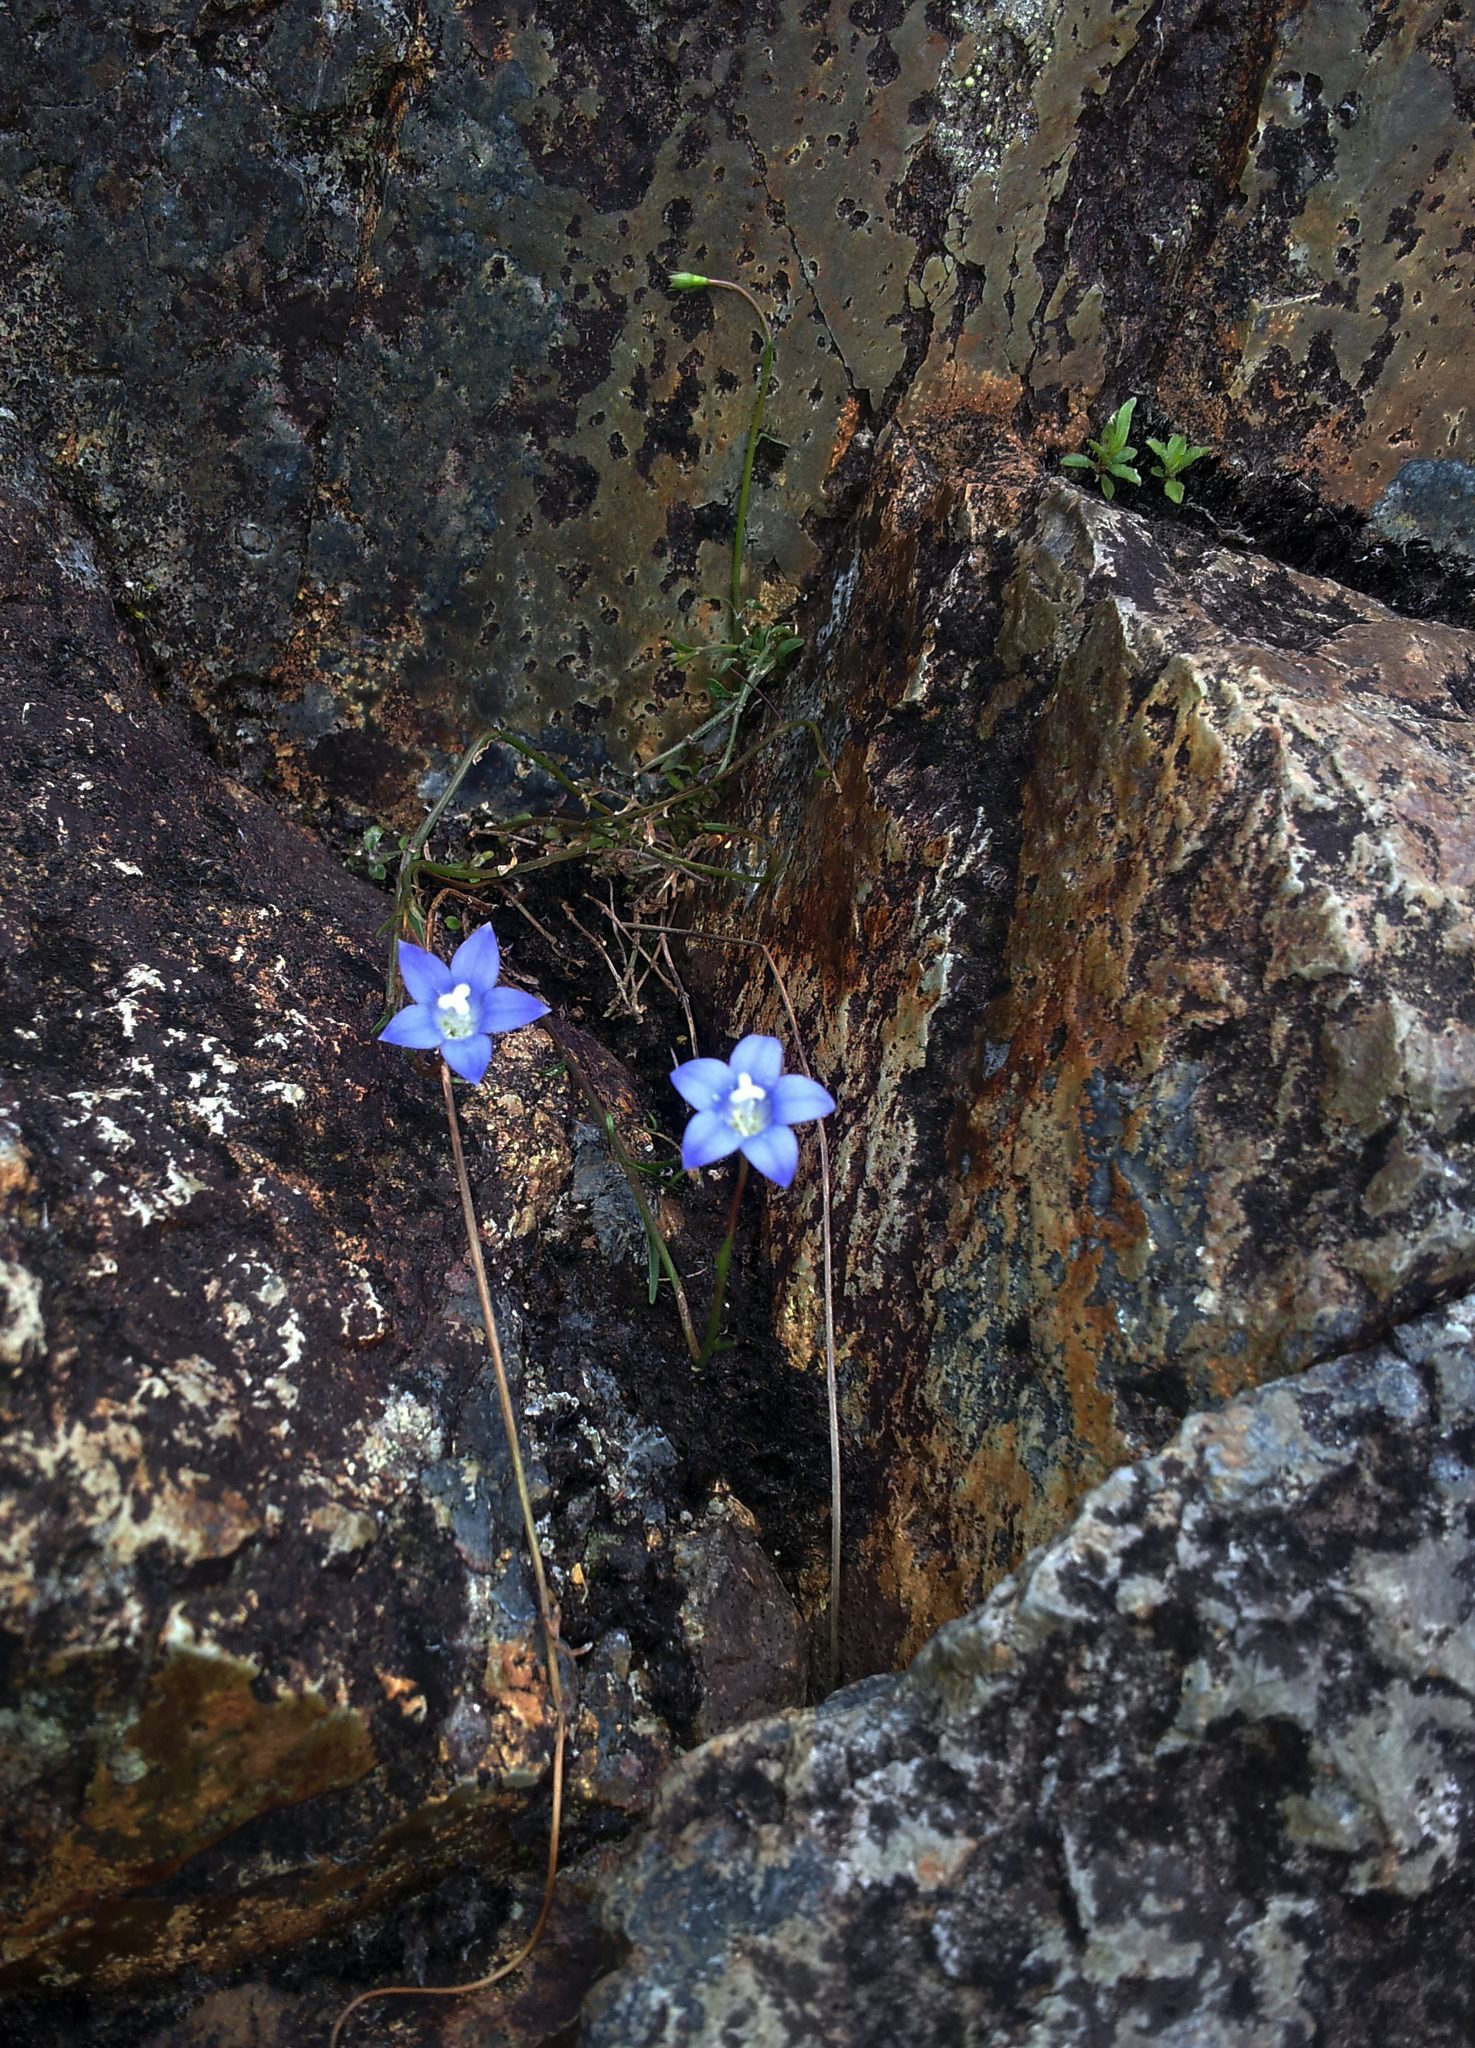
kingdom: Plantae
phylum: Tracheophyta
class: Magnoliopsida
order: Asterales
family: Campanulaceae
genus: Wahlenbergia
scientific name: Wahlenbergia violacea
